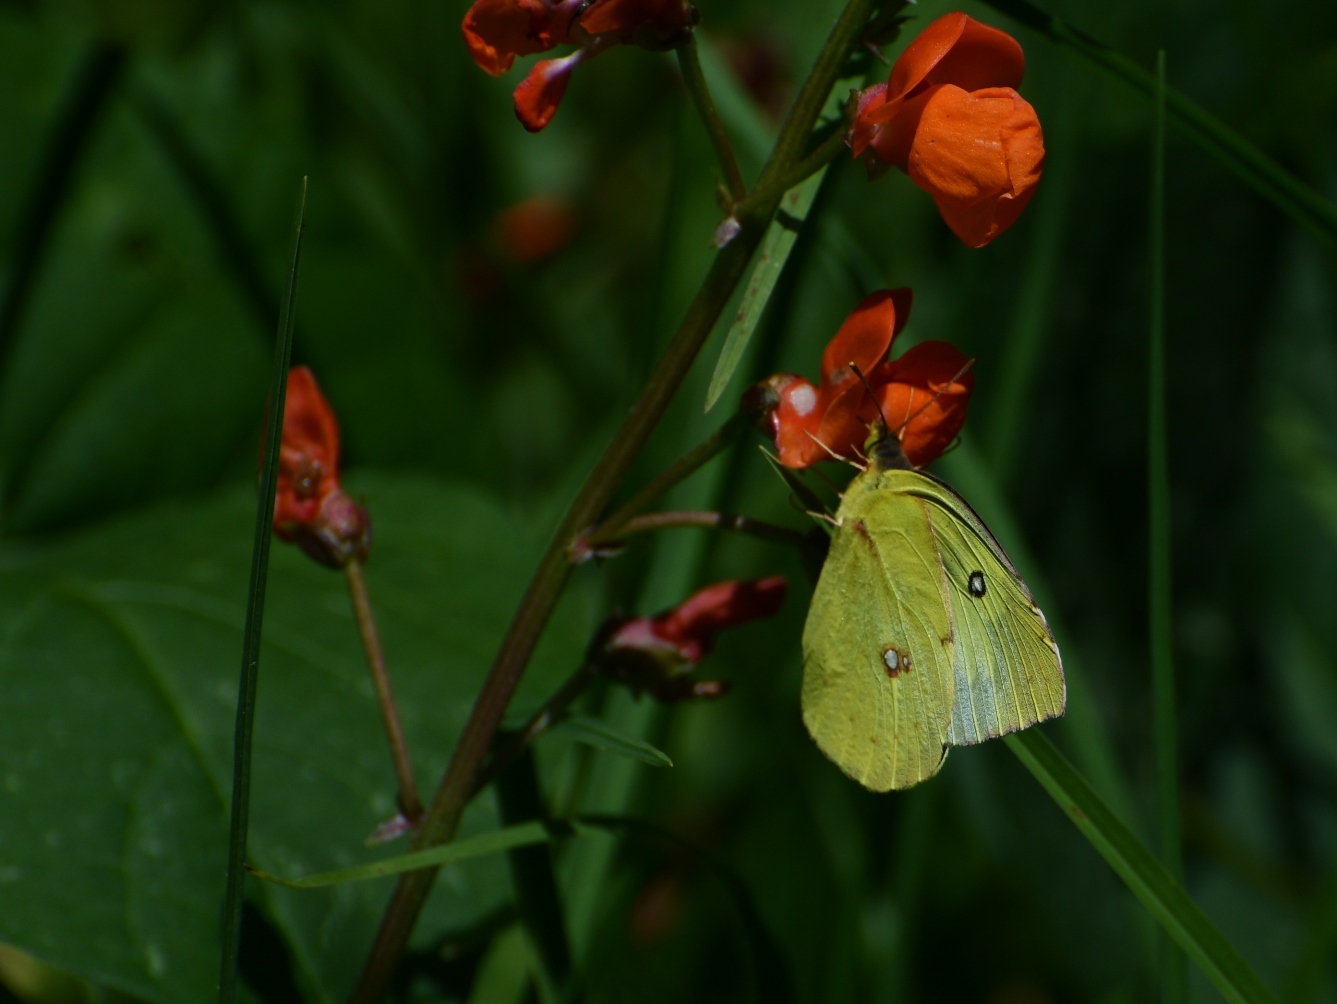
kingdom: Animalia
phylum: Arthropoda
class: Insecta
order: Lepidoptera
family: Pieridae
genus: Zerene
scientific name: Zerene cesonia
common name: Southern dogface
